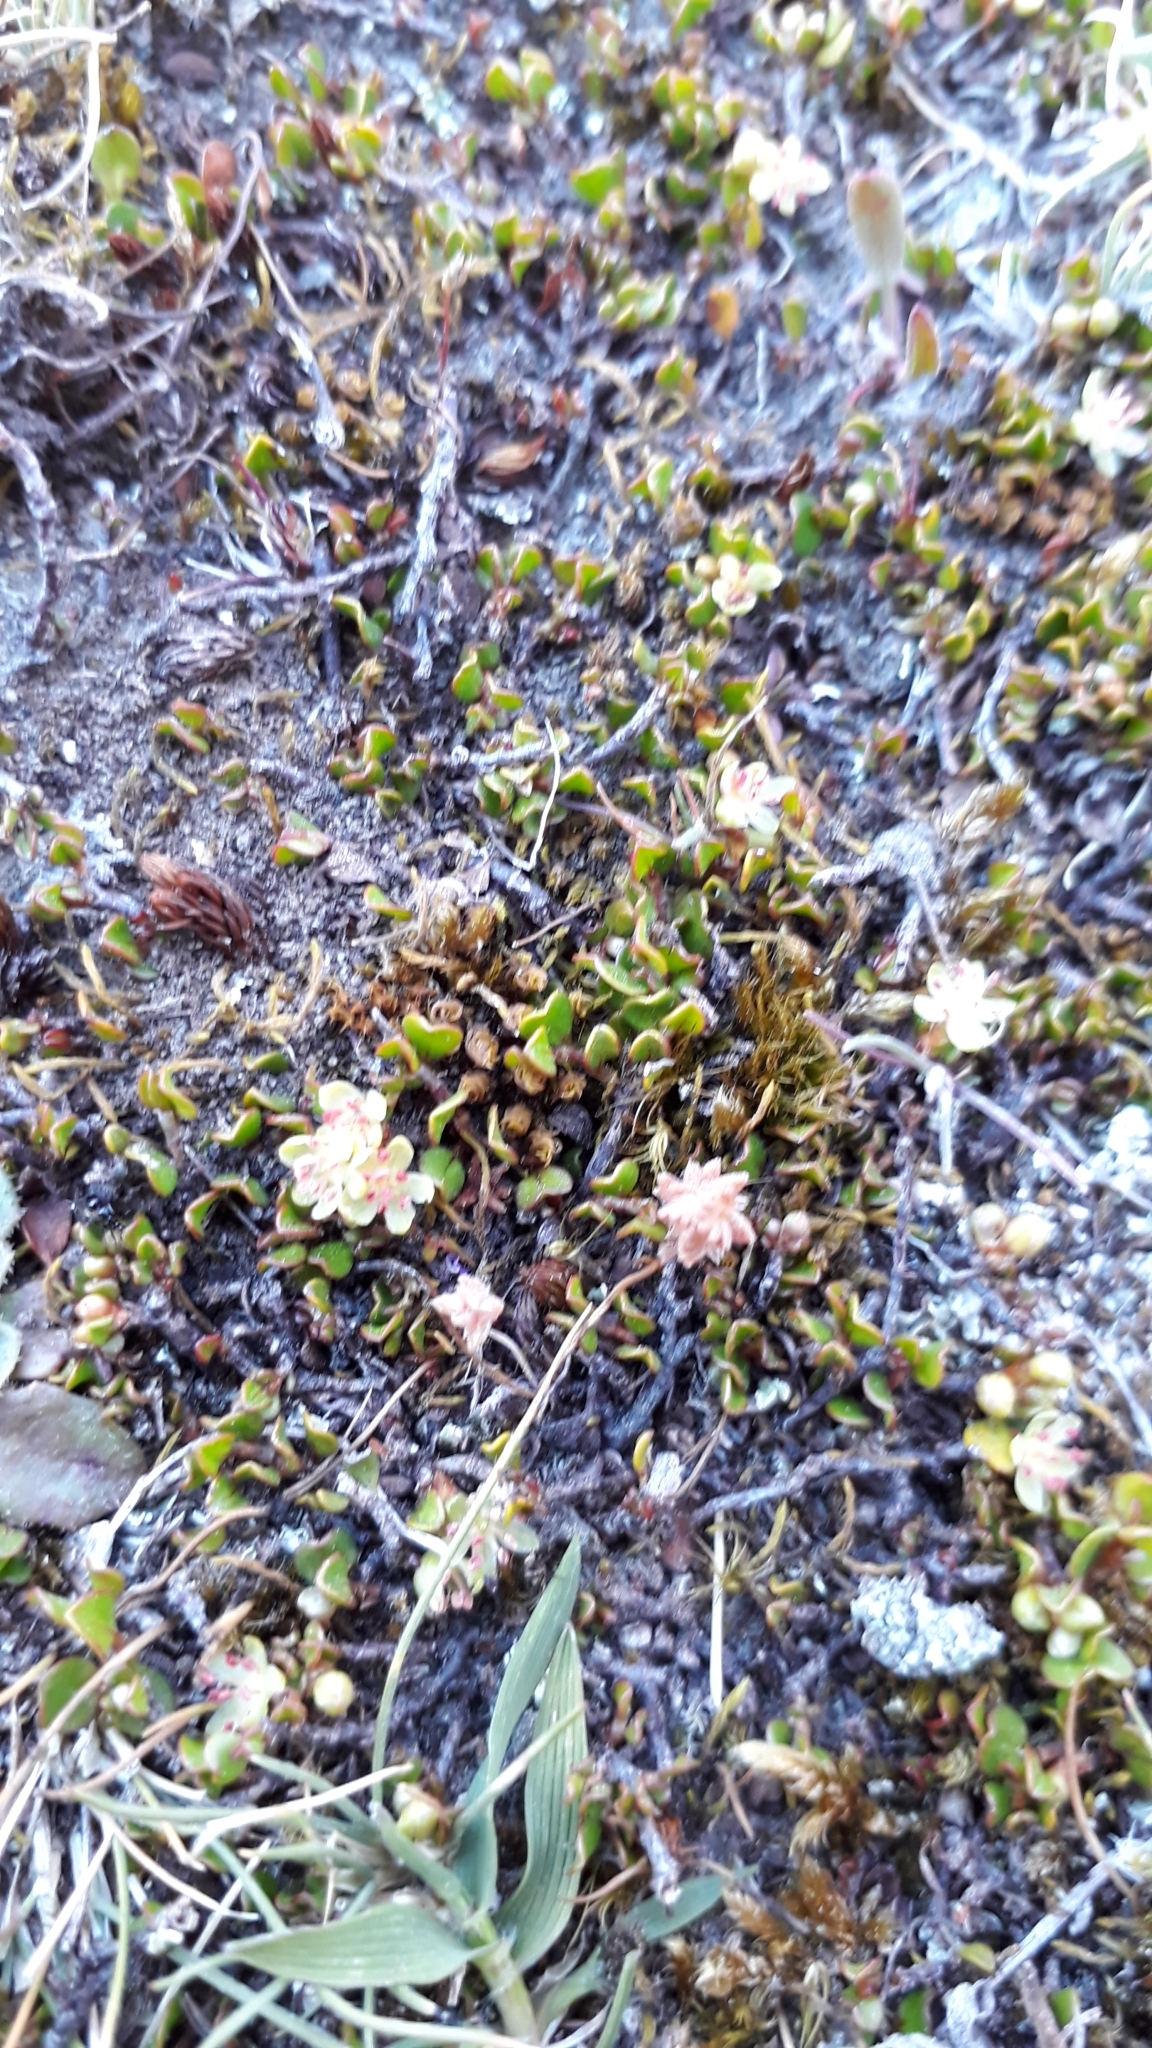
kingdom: Plantae
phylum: Tracheophyta
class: Magnoliopsida
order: Caryophyllales
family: Polygonaceae
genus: Muehlenbeckia
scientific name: Muehlenbeckia axillaris
